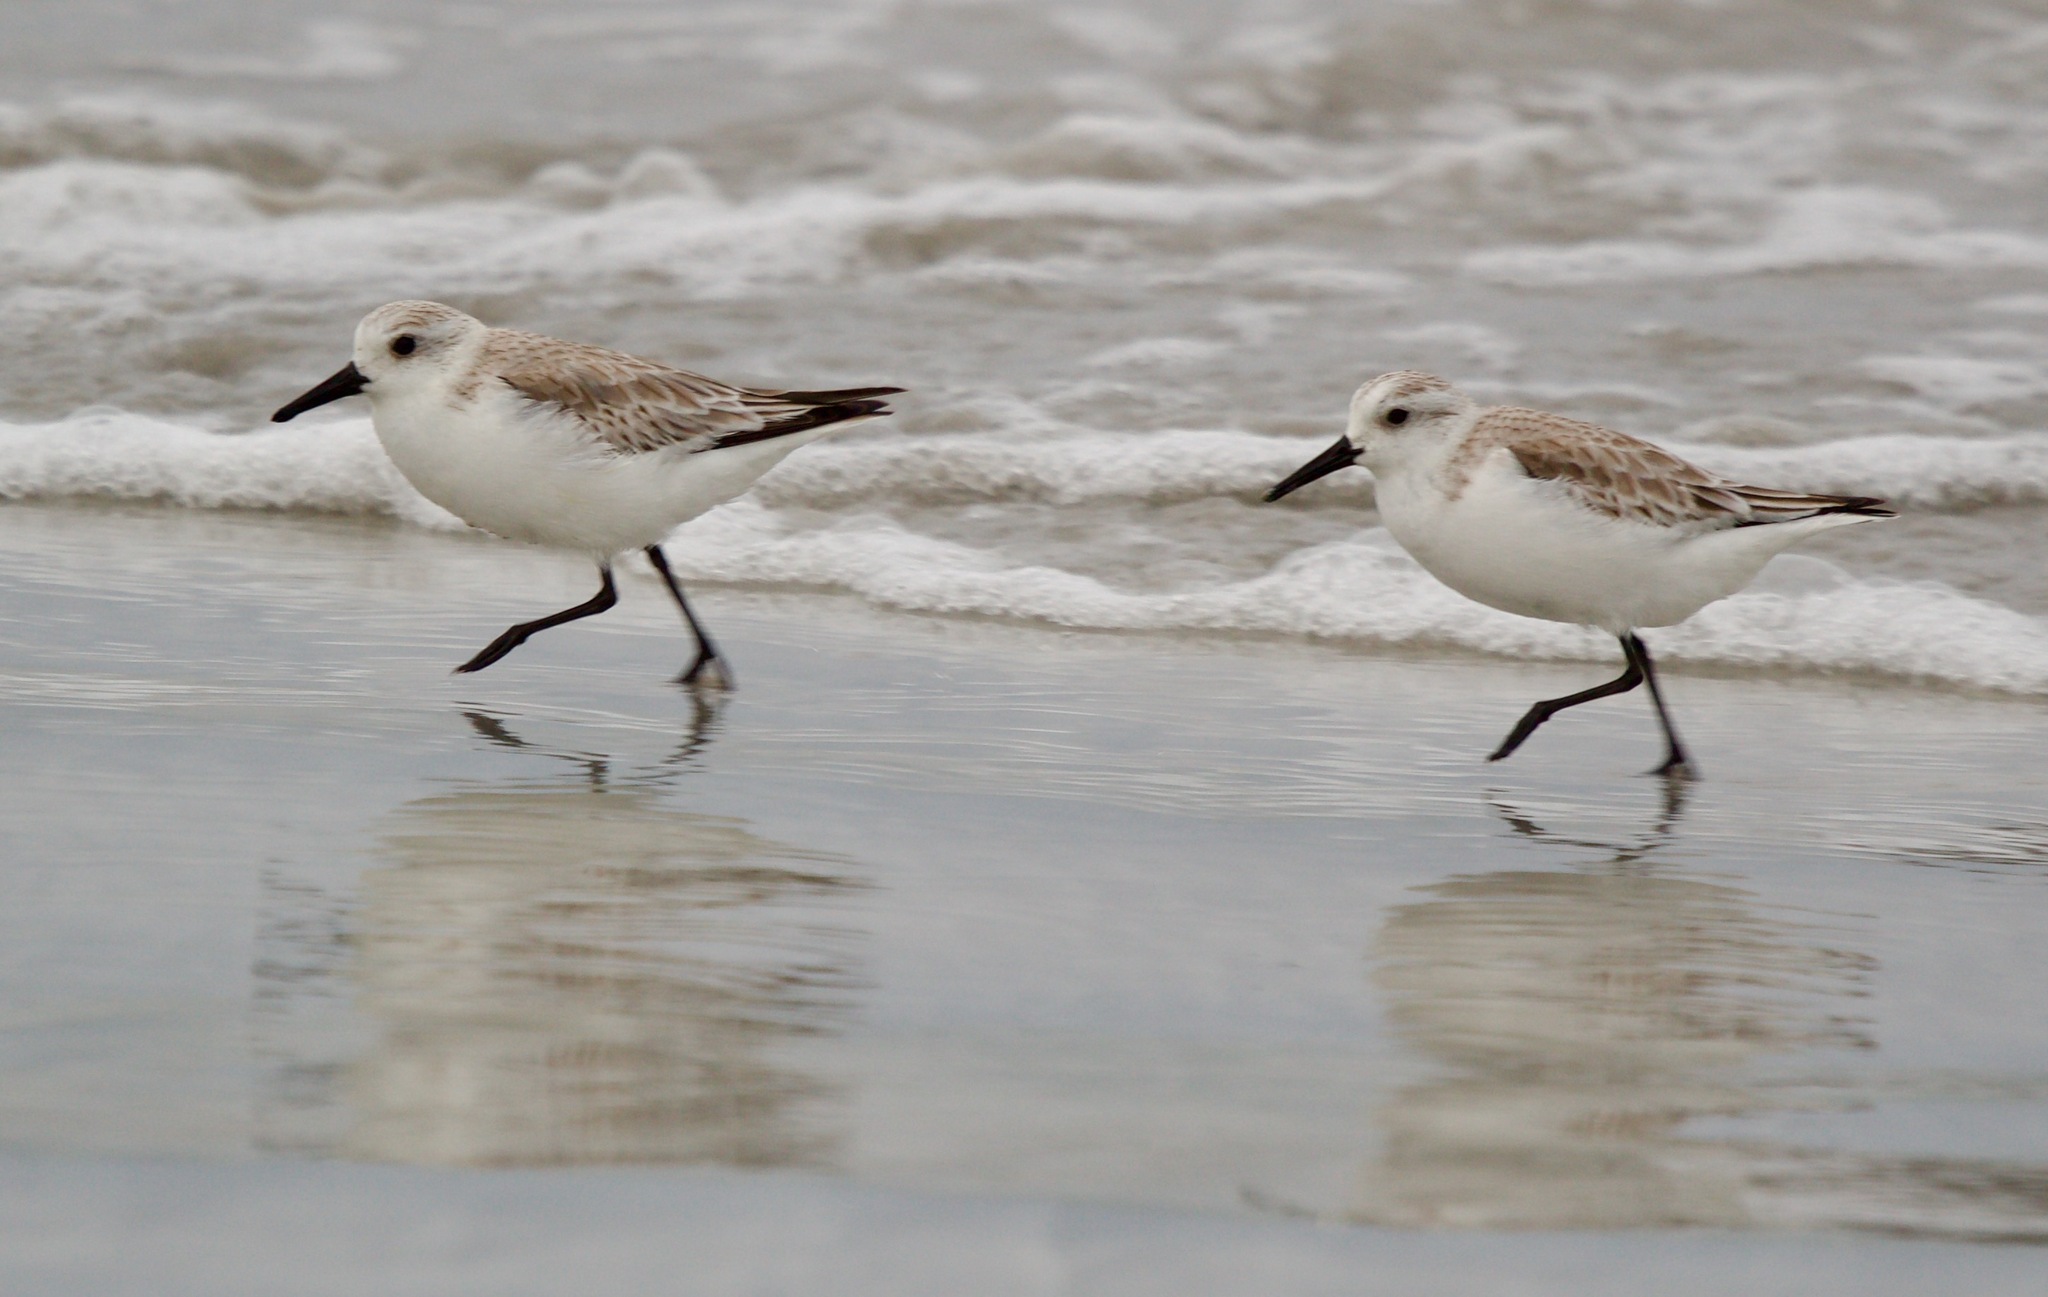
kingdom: Animalia
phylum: Chordata
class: Aves
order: Charadriiformes
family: Scolopacidae
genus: Calidris
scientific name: Calidris alba
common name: Sanderling
